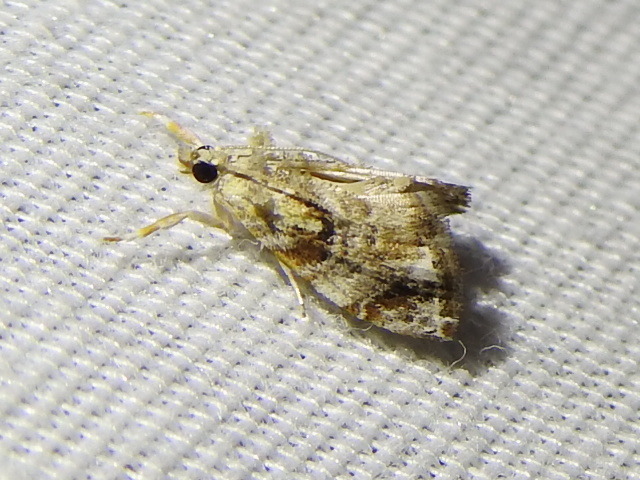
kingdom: Animalia
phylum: Arthropoda
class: Insecta
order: Lepidoptera
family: Crambidae
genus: Dicymolomia
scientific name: Dicymolomia julianalis
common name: Julia's dicymolomia moth
